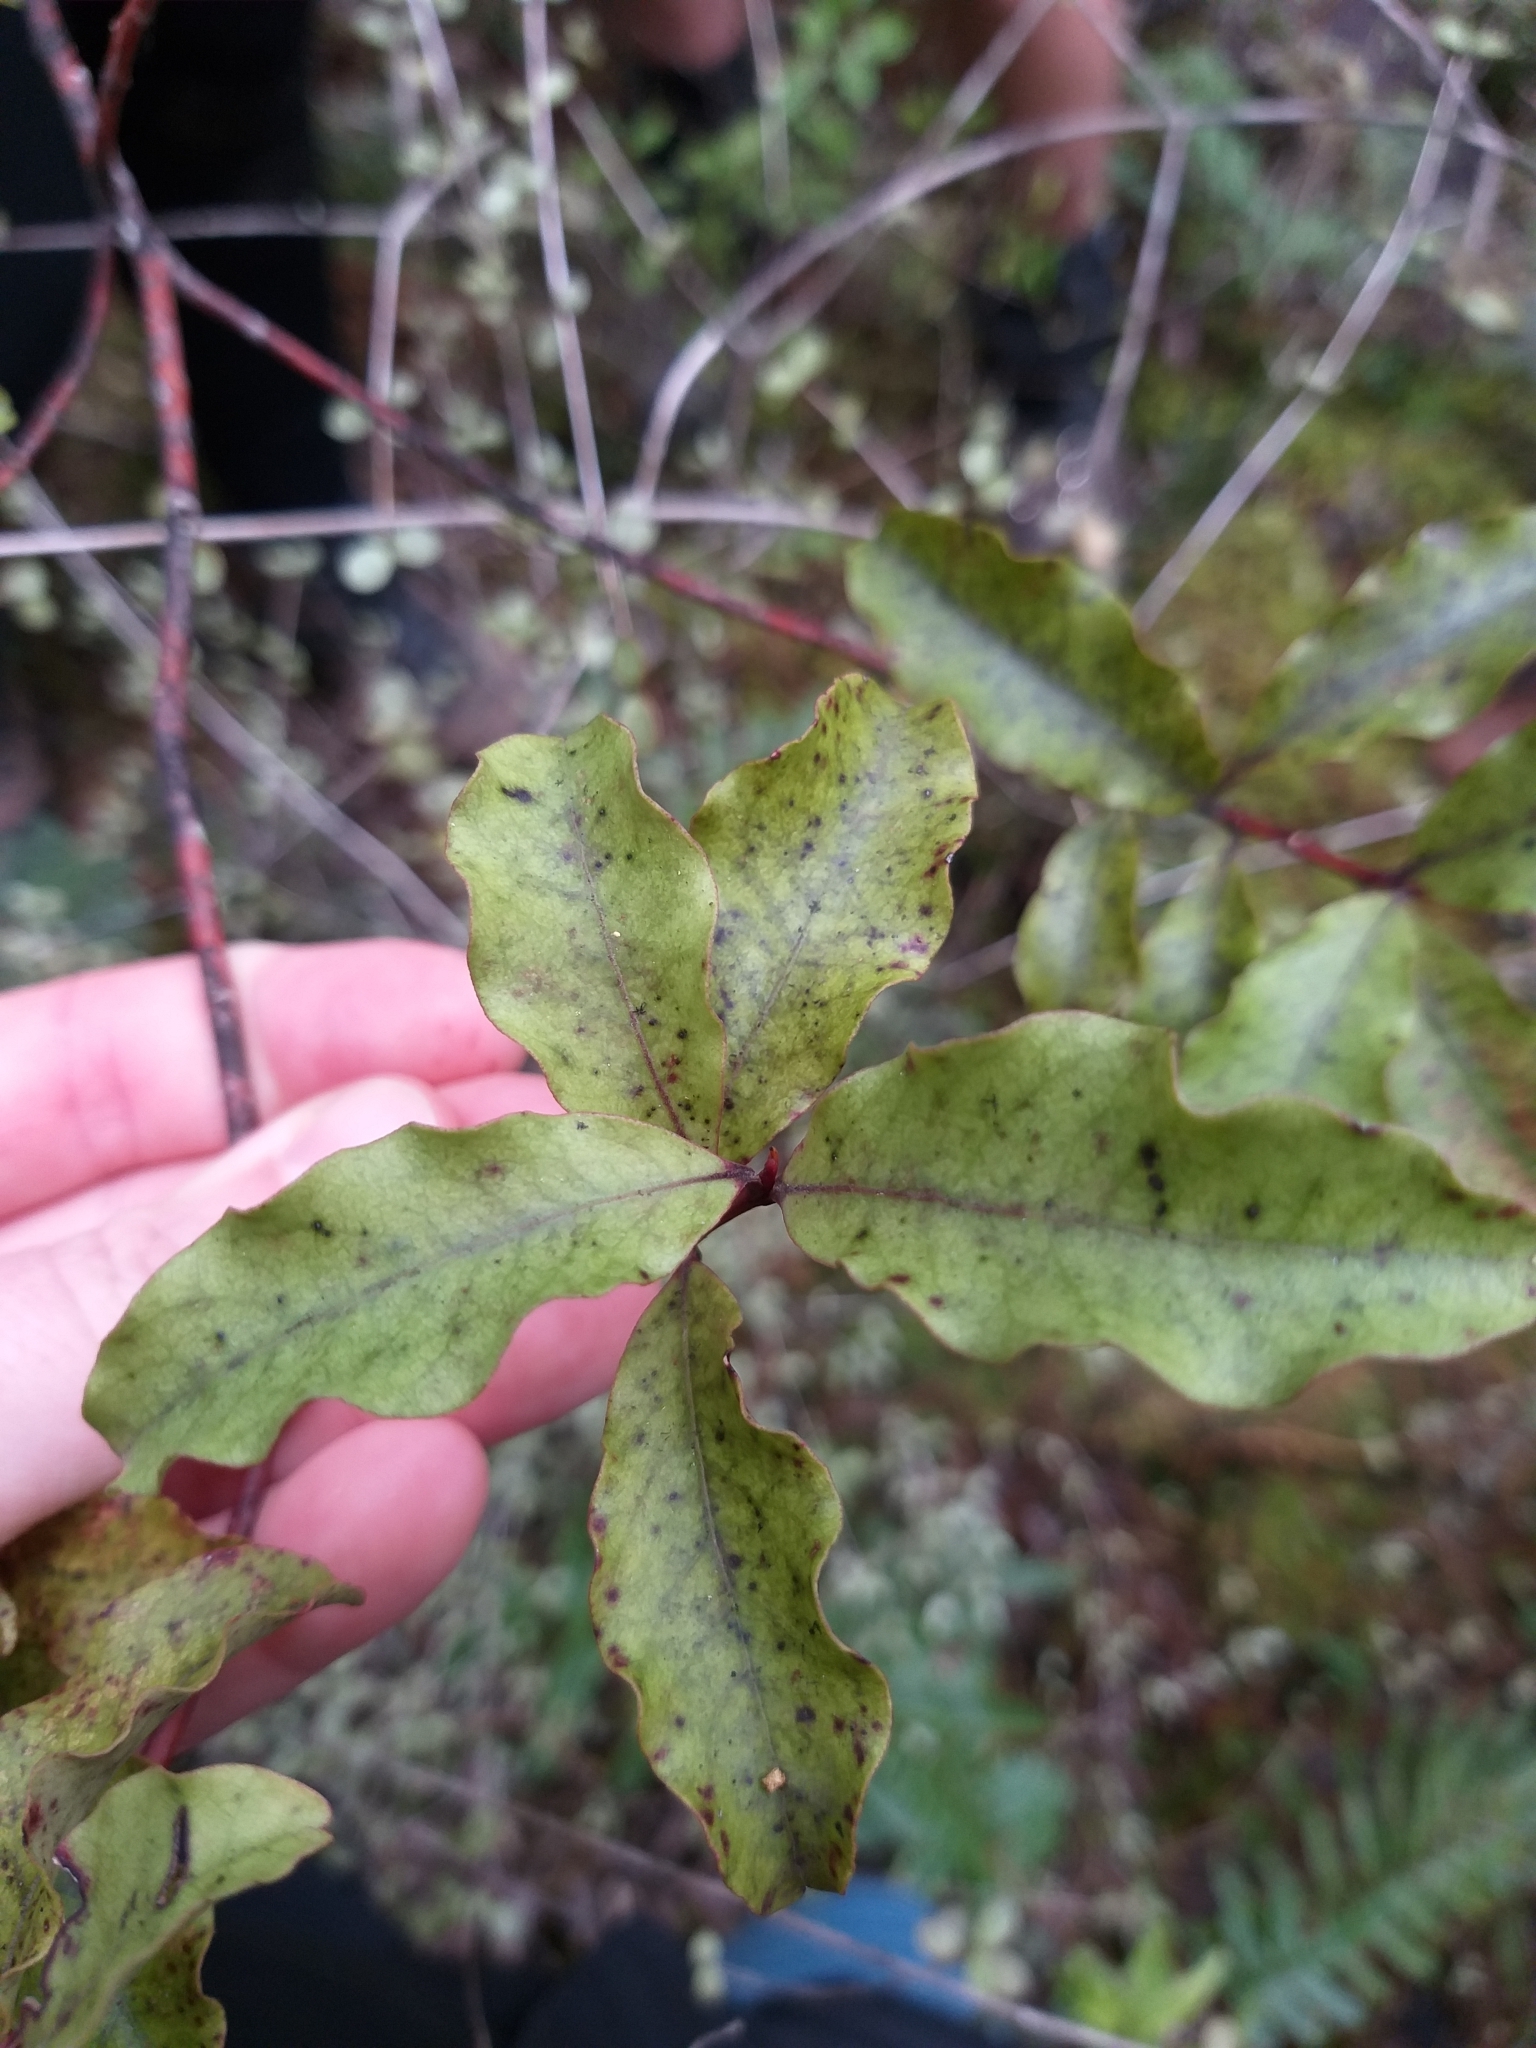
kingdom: Plantae
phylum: Tracheophyta
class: Magnoliopsida
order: Ericales
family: Primulaceae
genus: Myrsine
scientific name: Myrsine australis
